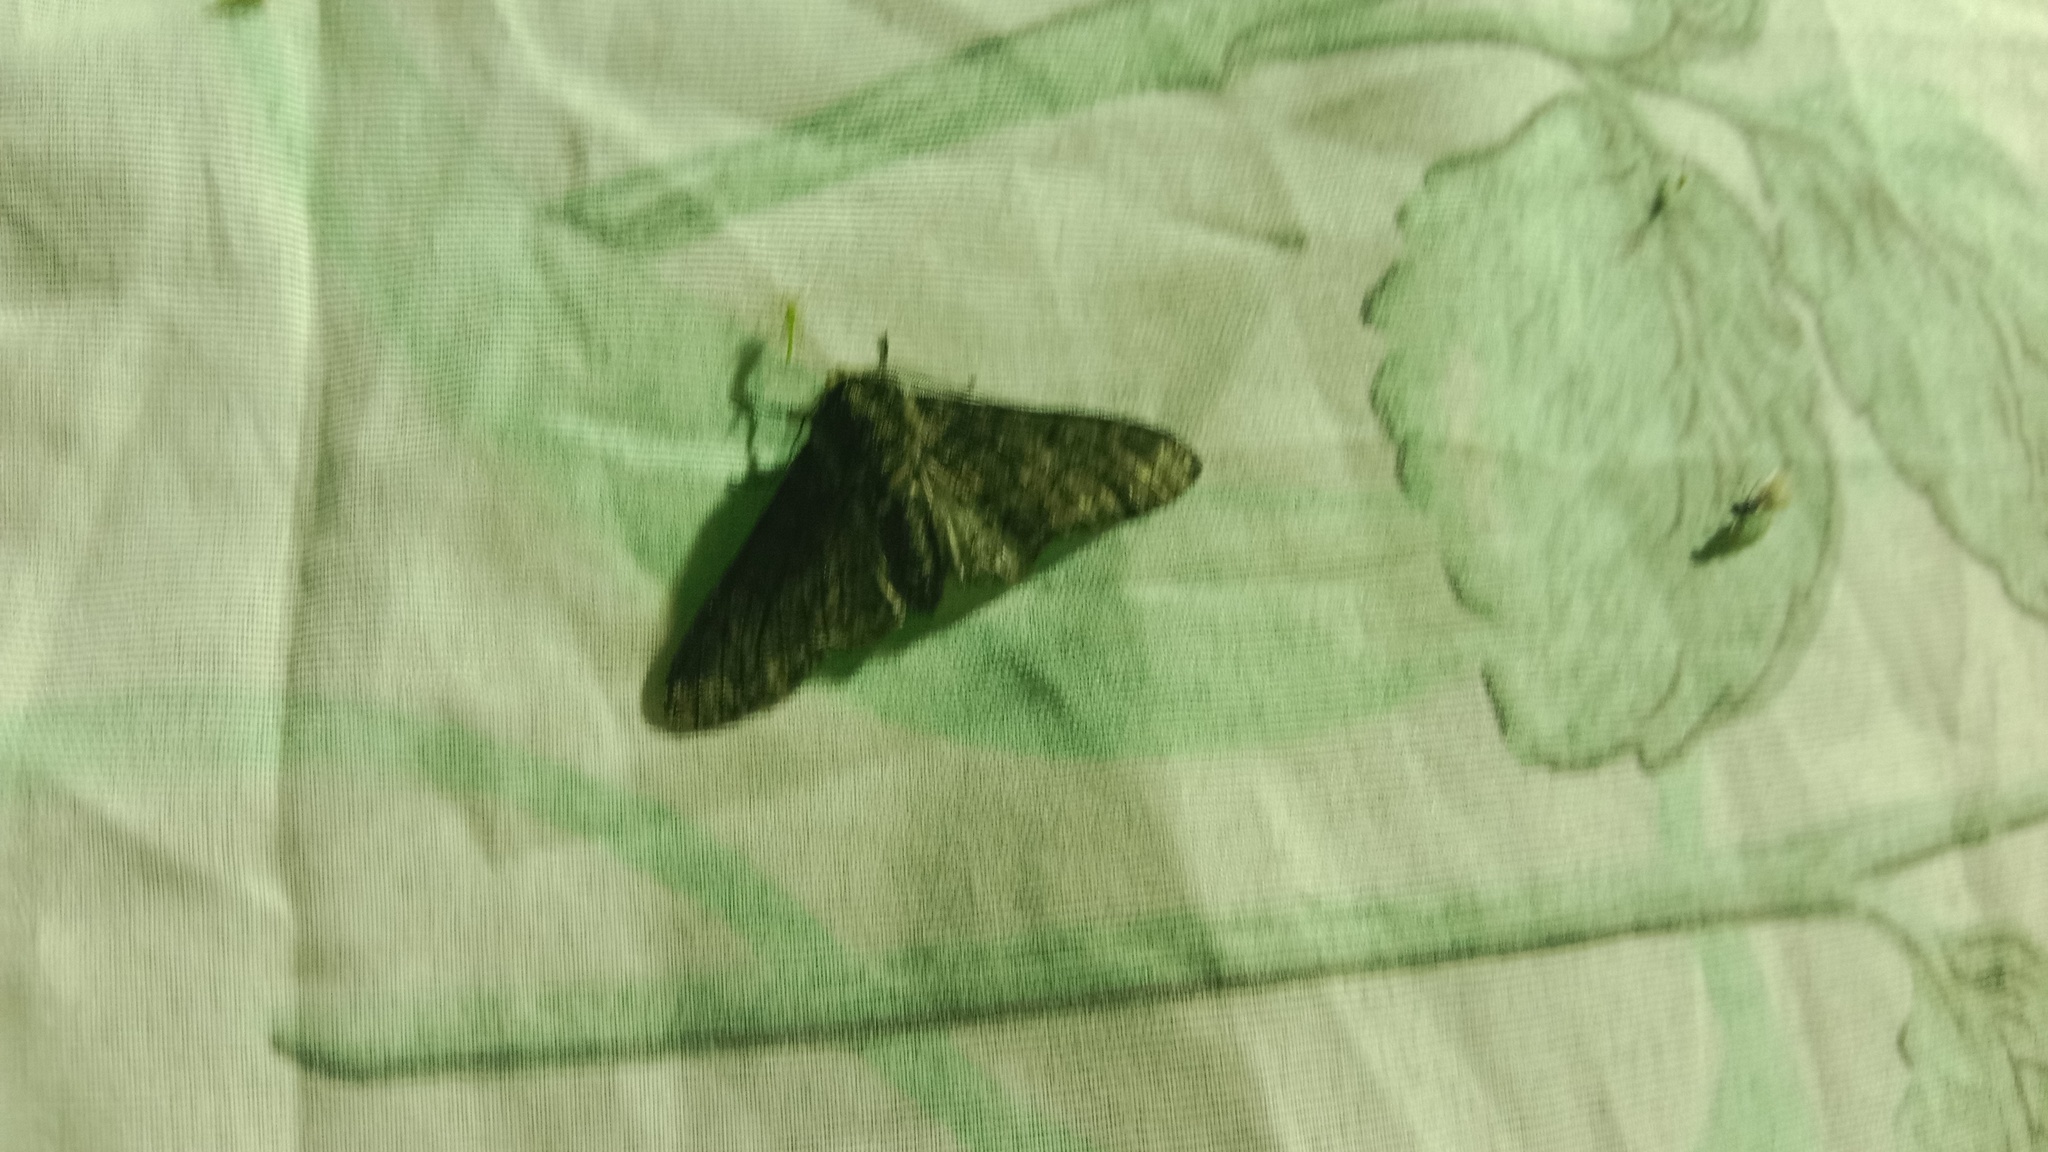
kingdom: Animalia
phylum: Arthropoda
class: Insecta
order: Lepidoptera
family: Geometridae
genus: Biston
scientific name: Biston betularia
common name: Peppered moth
